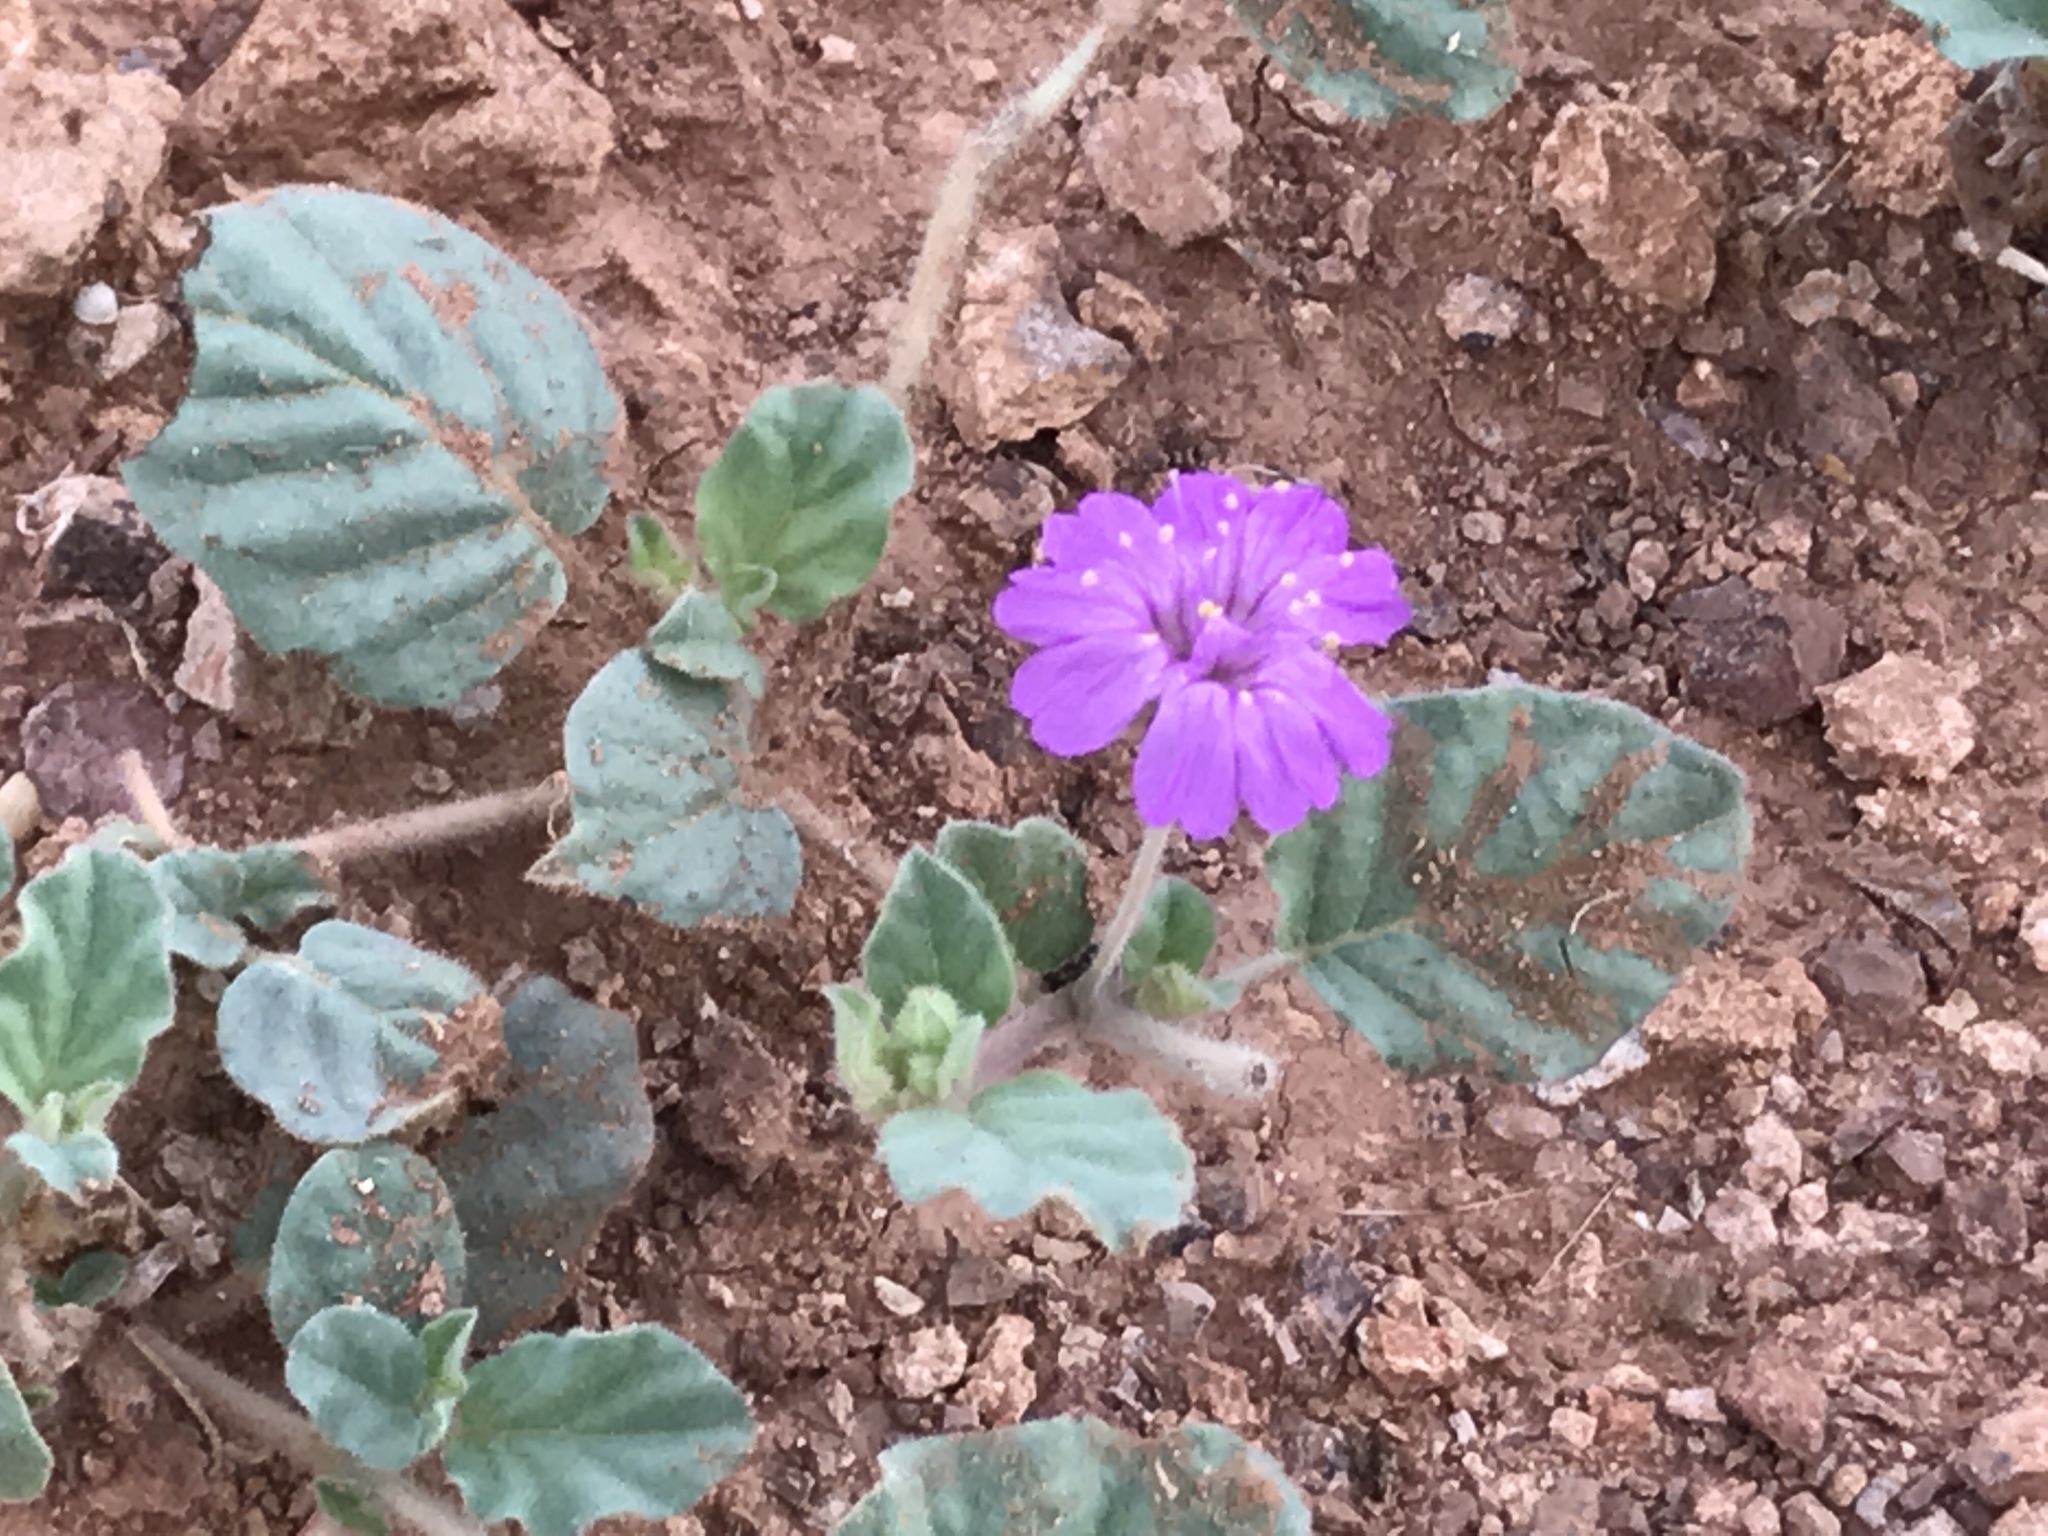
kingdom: Plantae
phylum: Tracheophyta
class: Magnoliopsida
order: Caryophyllales
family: Nyctaginaceae
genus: Allionia
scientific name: Allionia incarnata
